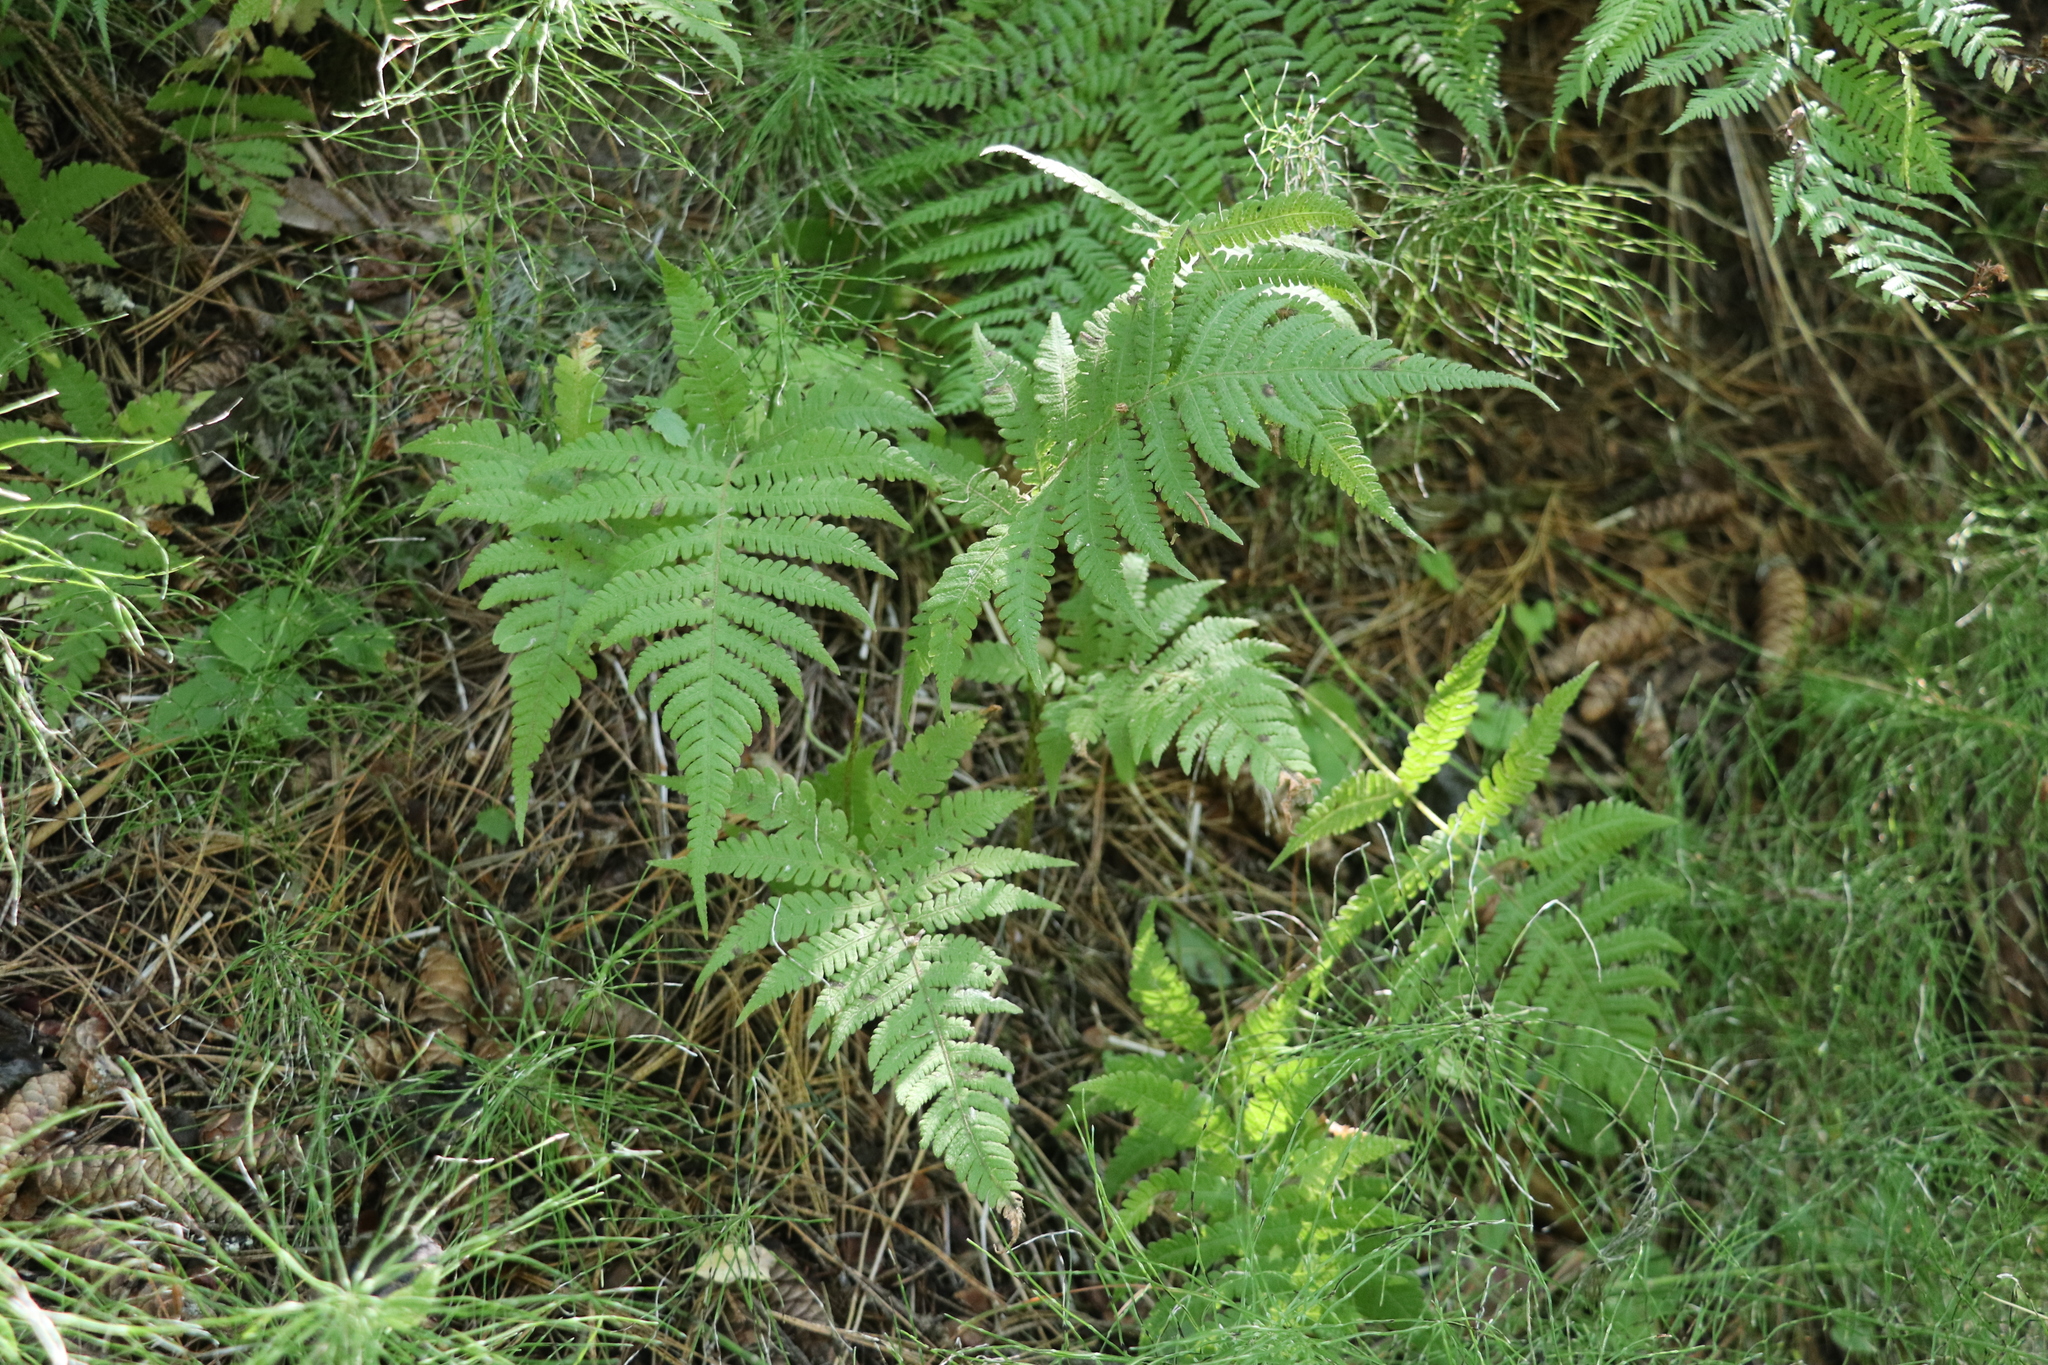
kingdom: Plantae
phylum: Tracheophyta
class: Polypodiopsida
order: Polypodiales
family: Thelypteridaceae
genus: Phegopteris
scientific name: Phegopteris connectilis
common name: Beech fern
